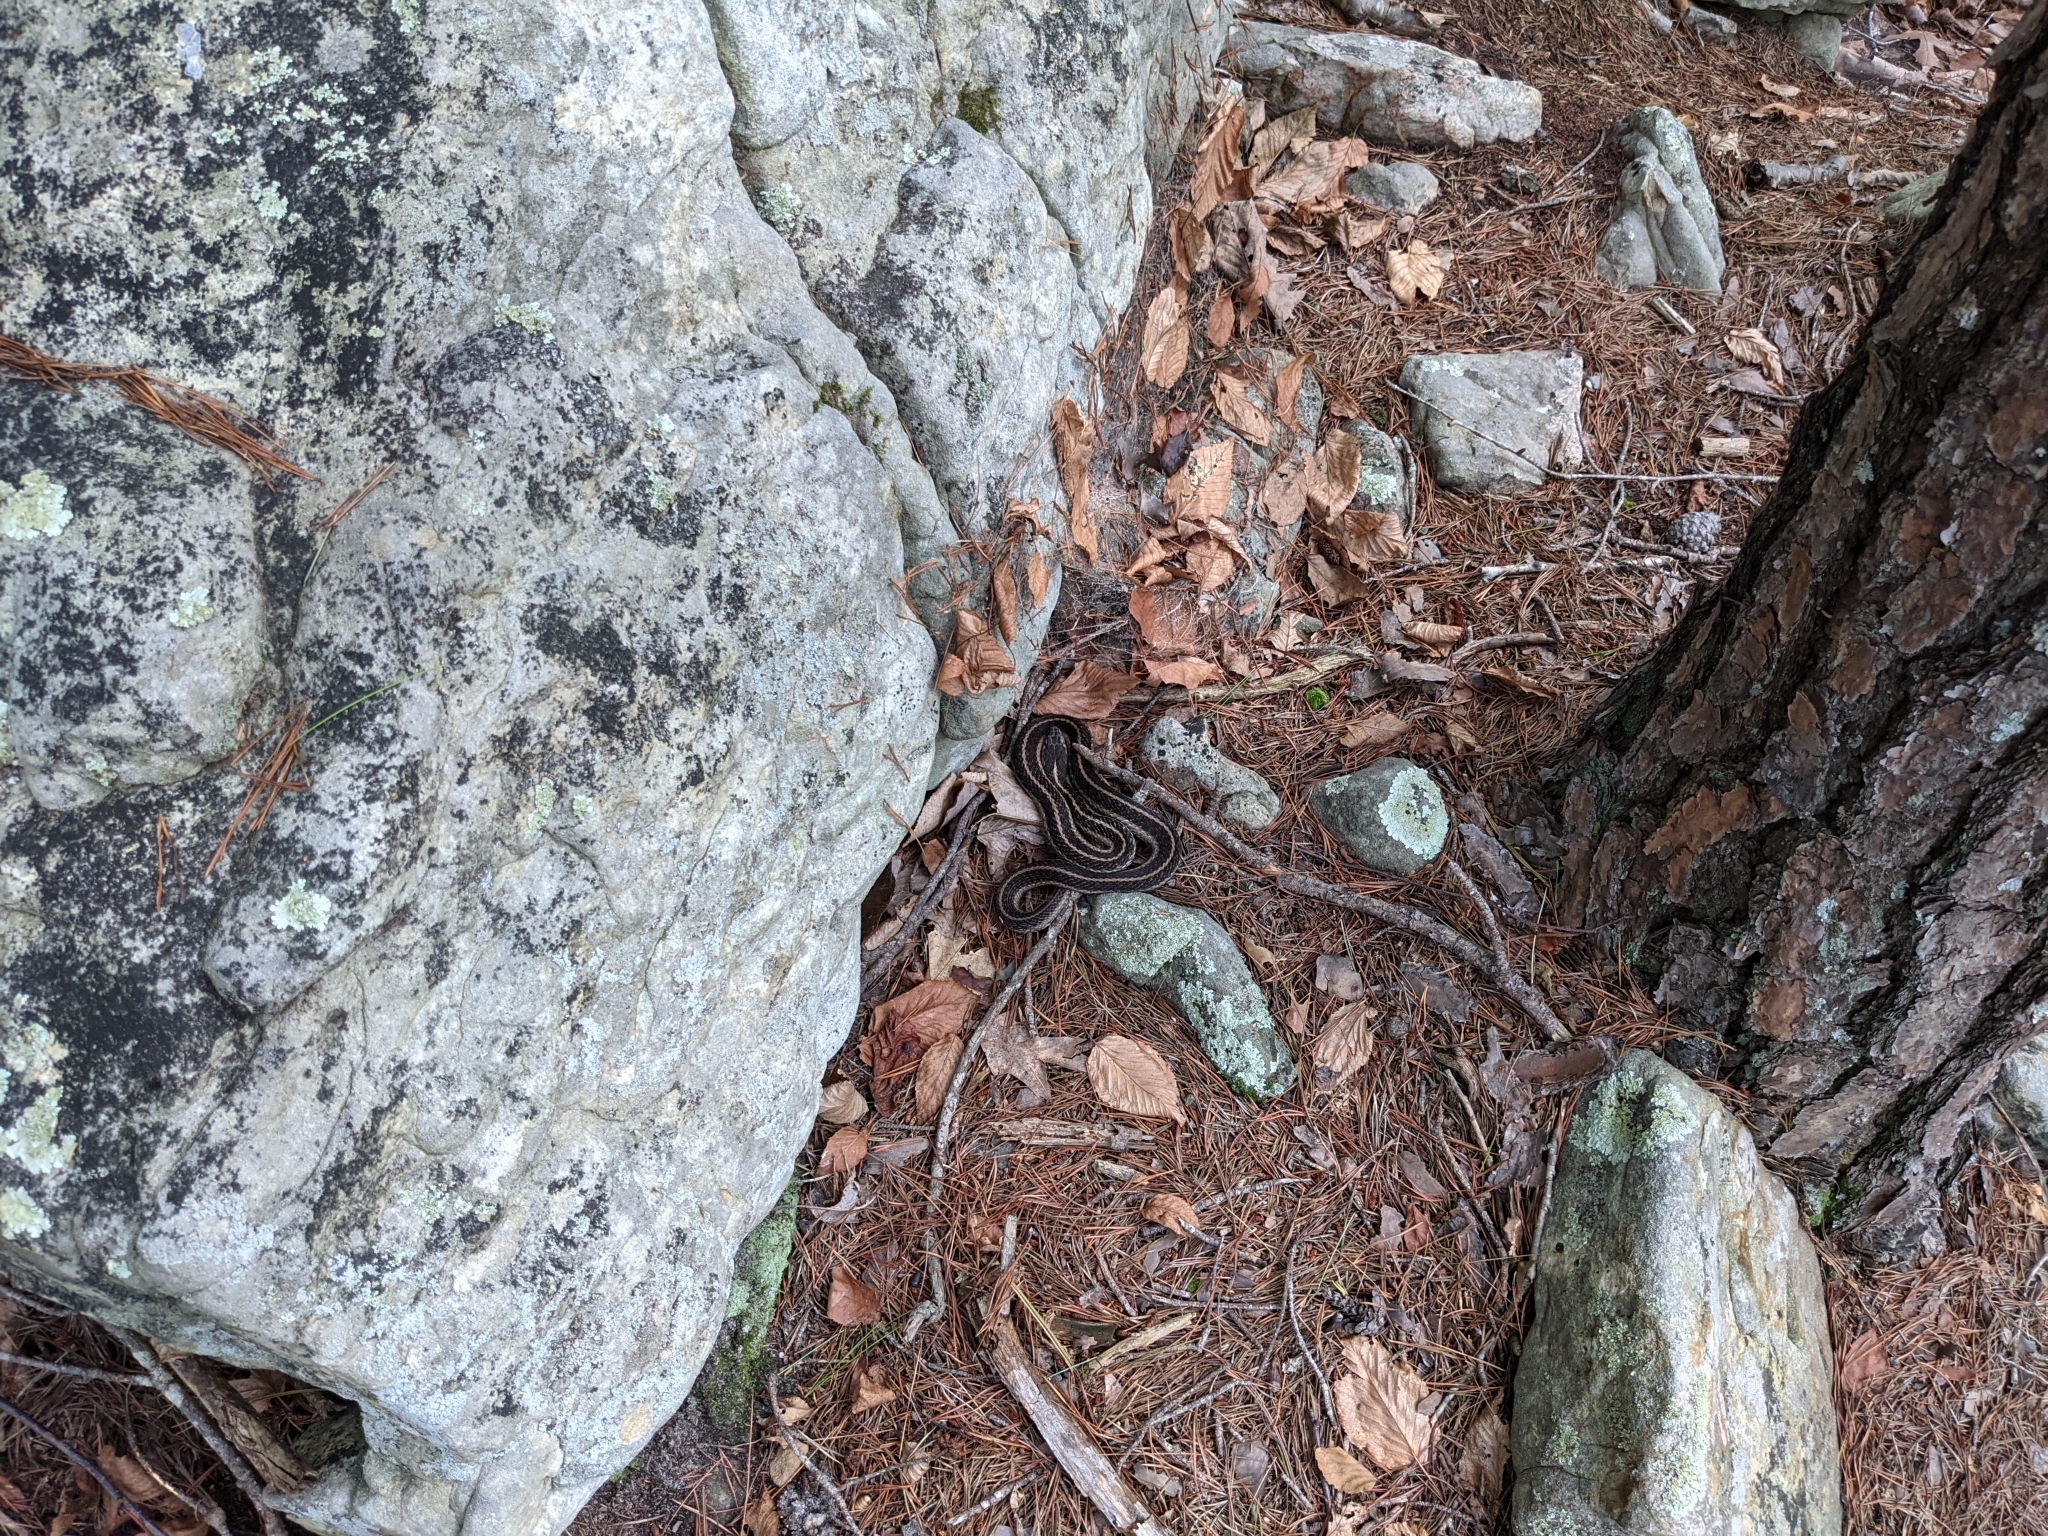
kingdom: Animalia
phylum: Chordata
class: Squamata
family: Colubridae
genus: Thamnophis
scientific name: Thamnophis sirtalis
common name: Common garter snake
